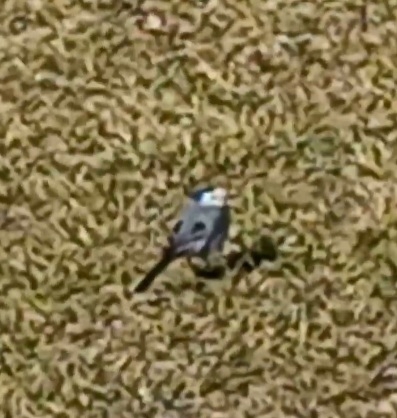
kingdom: Animalia
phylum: Chordata
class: Aves
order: Passeriformes
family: Motacillidae
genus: Motacilla
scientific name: Motacilla alba
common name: White wagtail
